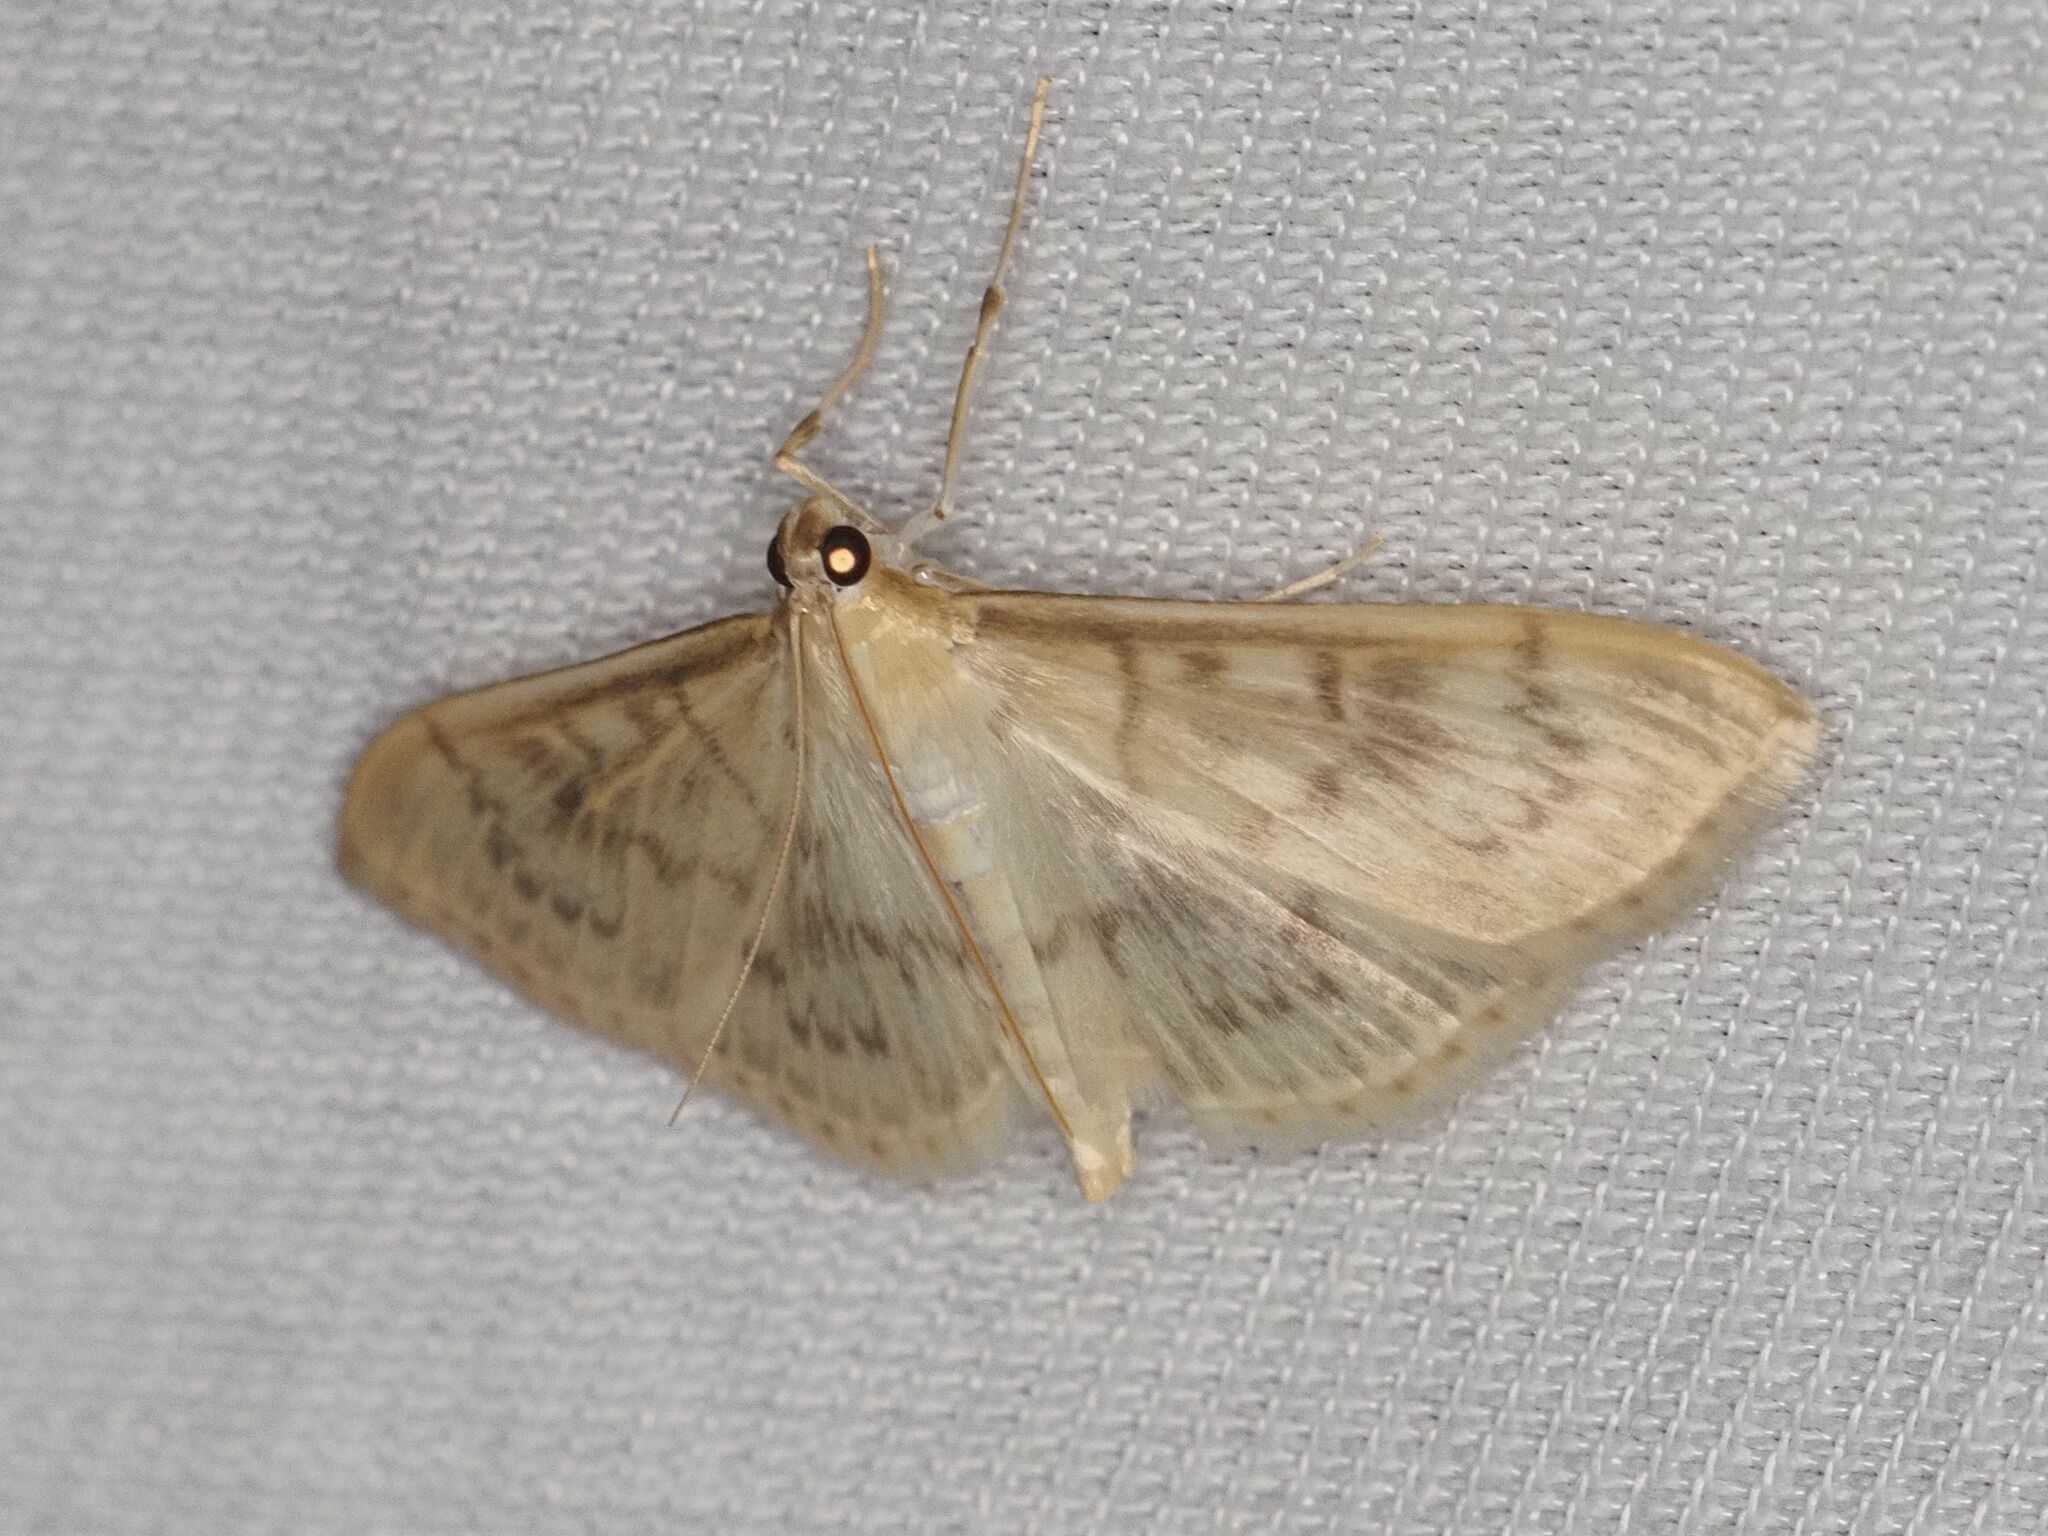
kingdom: Animalia
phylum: Arthropoda
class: Insecta
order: Lepidoptera
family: Crambidae
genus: Patania
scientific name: Patania ruralis
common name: Mother of pearl
